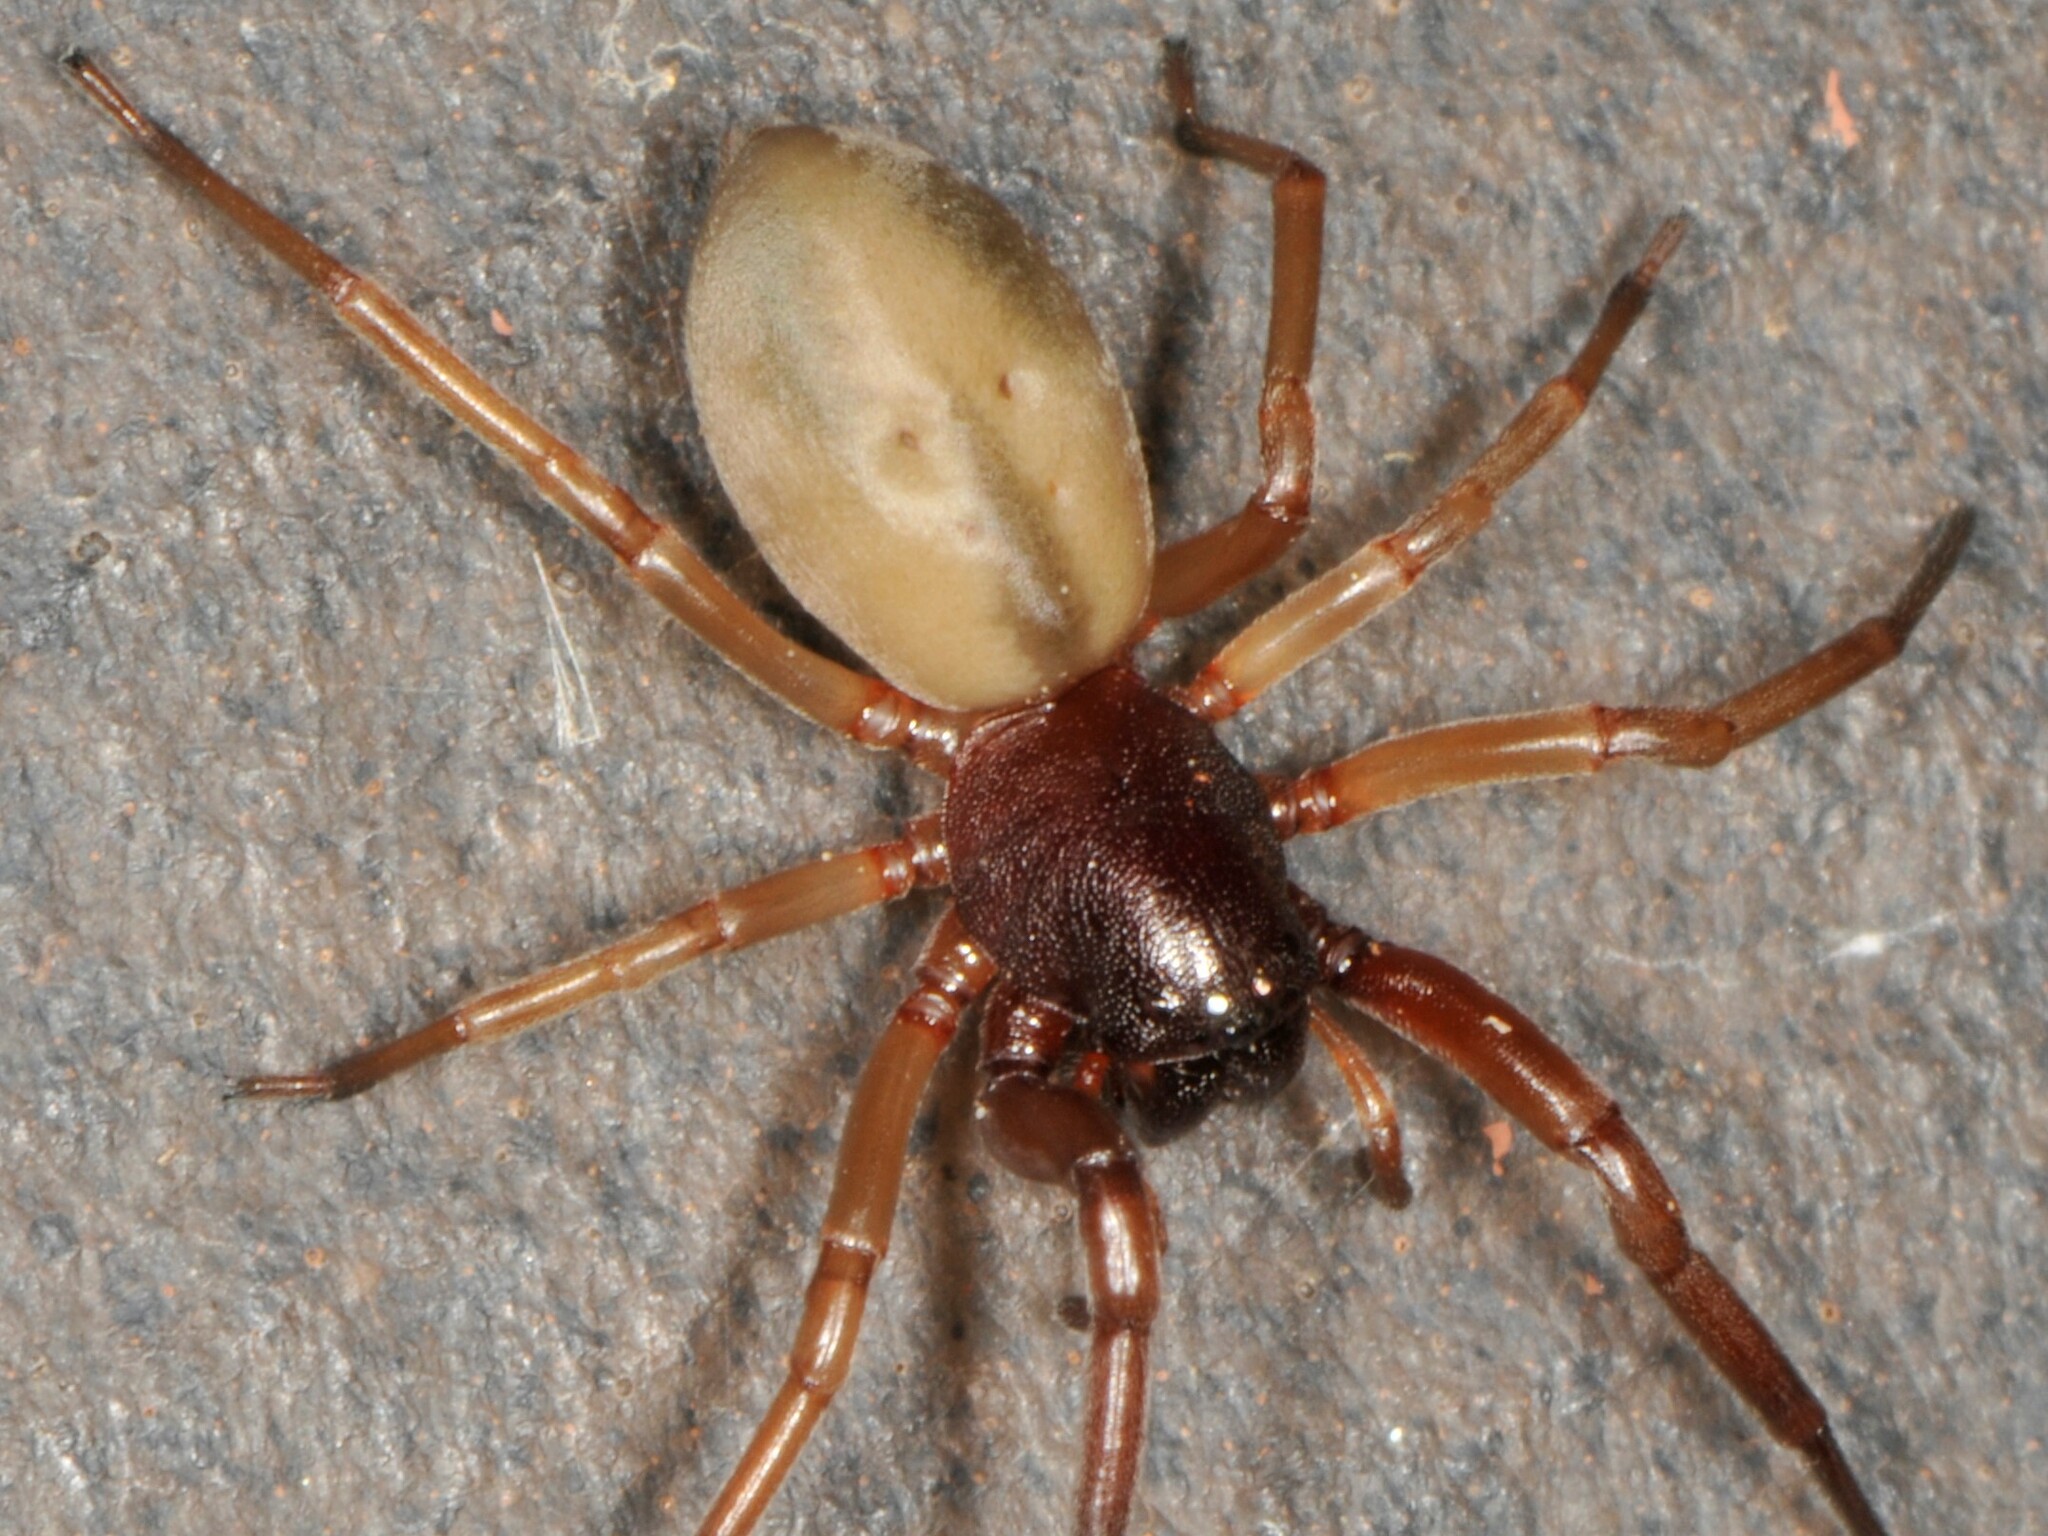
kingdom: Animalia
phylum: Arthropoda
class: Arachnida
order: Araneae
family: Trachelidae
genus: Trachelas
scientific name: Trachelas mexicanus
